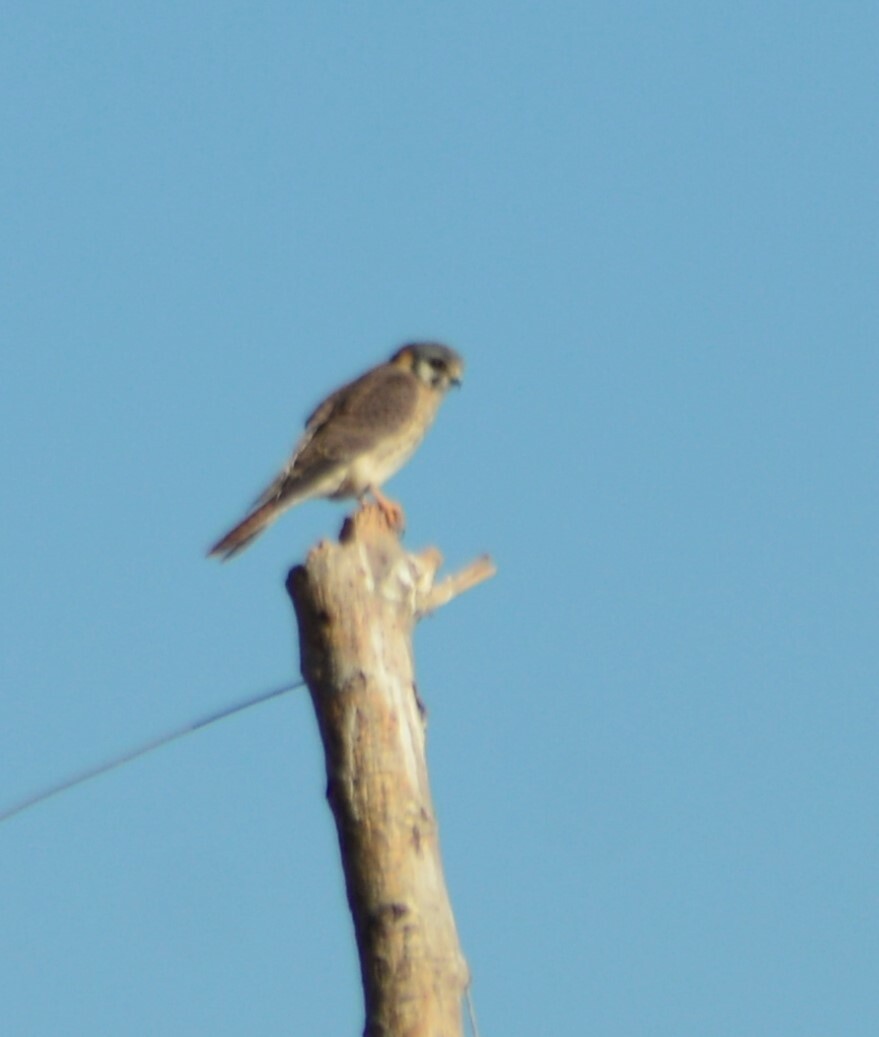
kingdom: Animalia
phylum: Chordata
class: Aves
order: Falconiformes
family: Falconidae
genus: Falco
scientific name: Falco sparverius
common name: American kestrel
